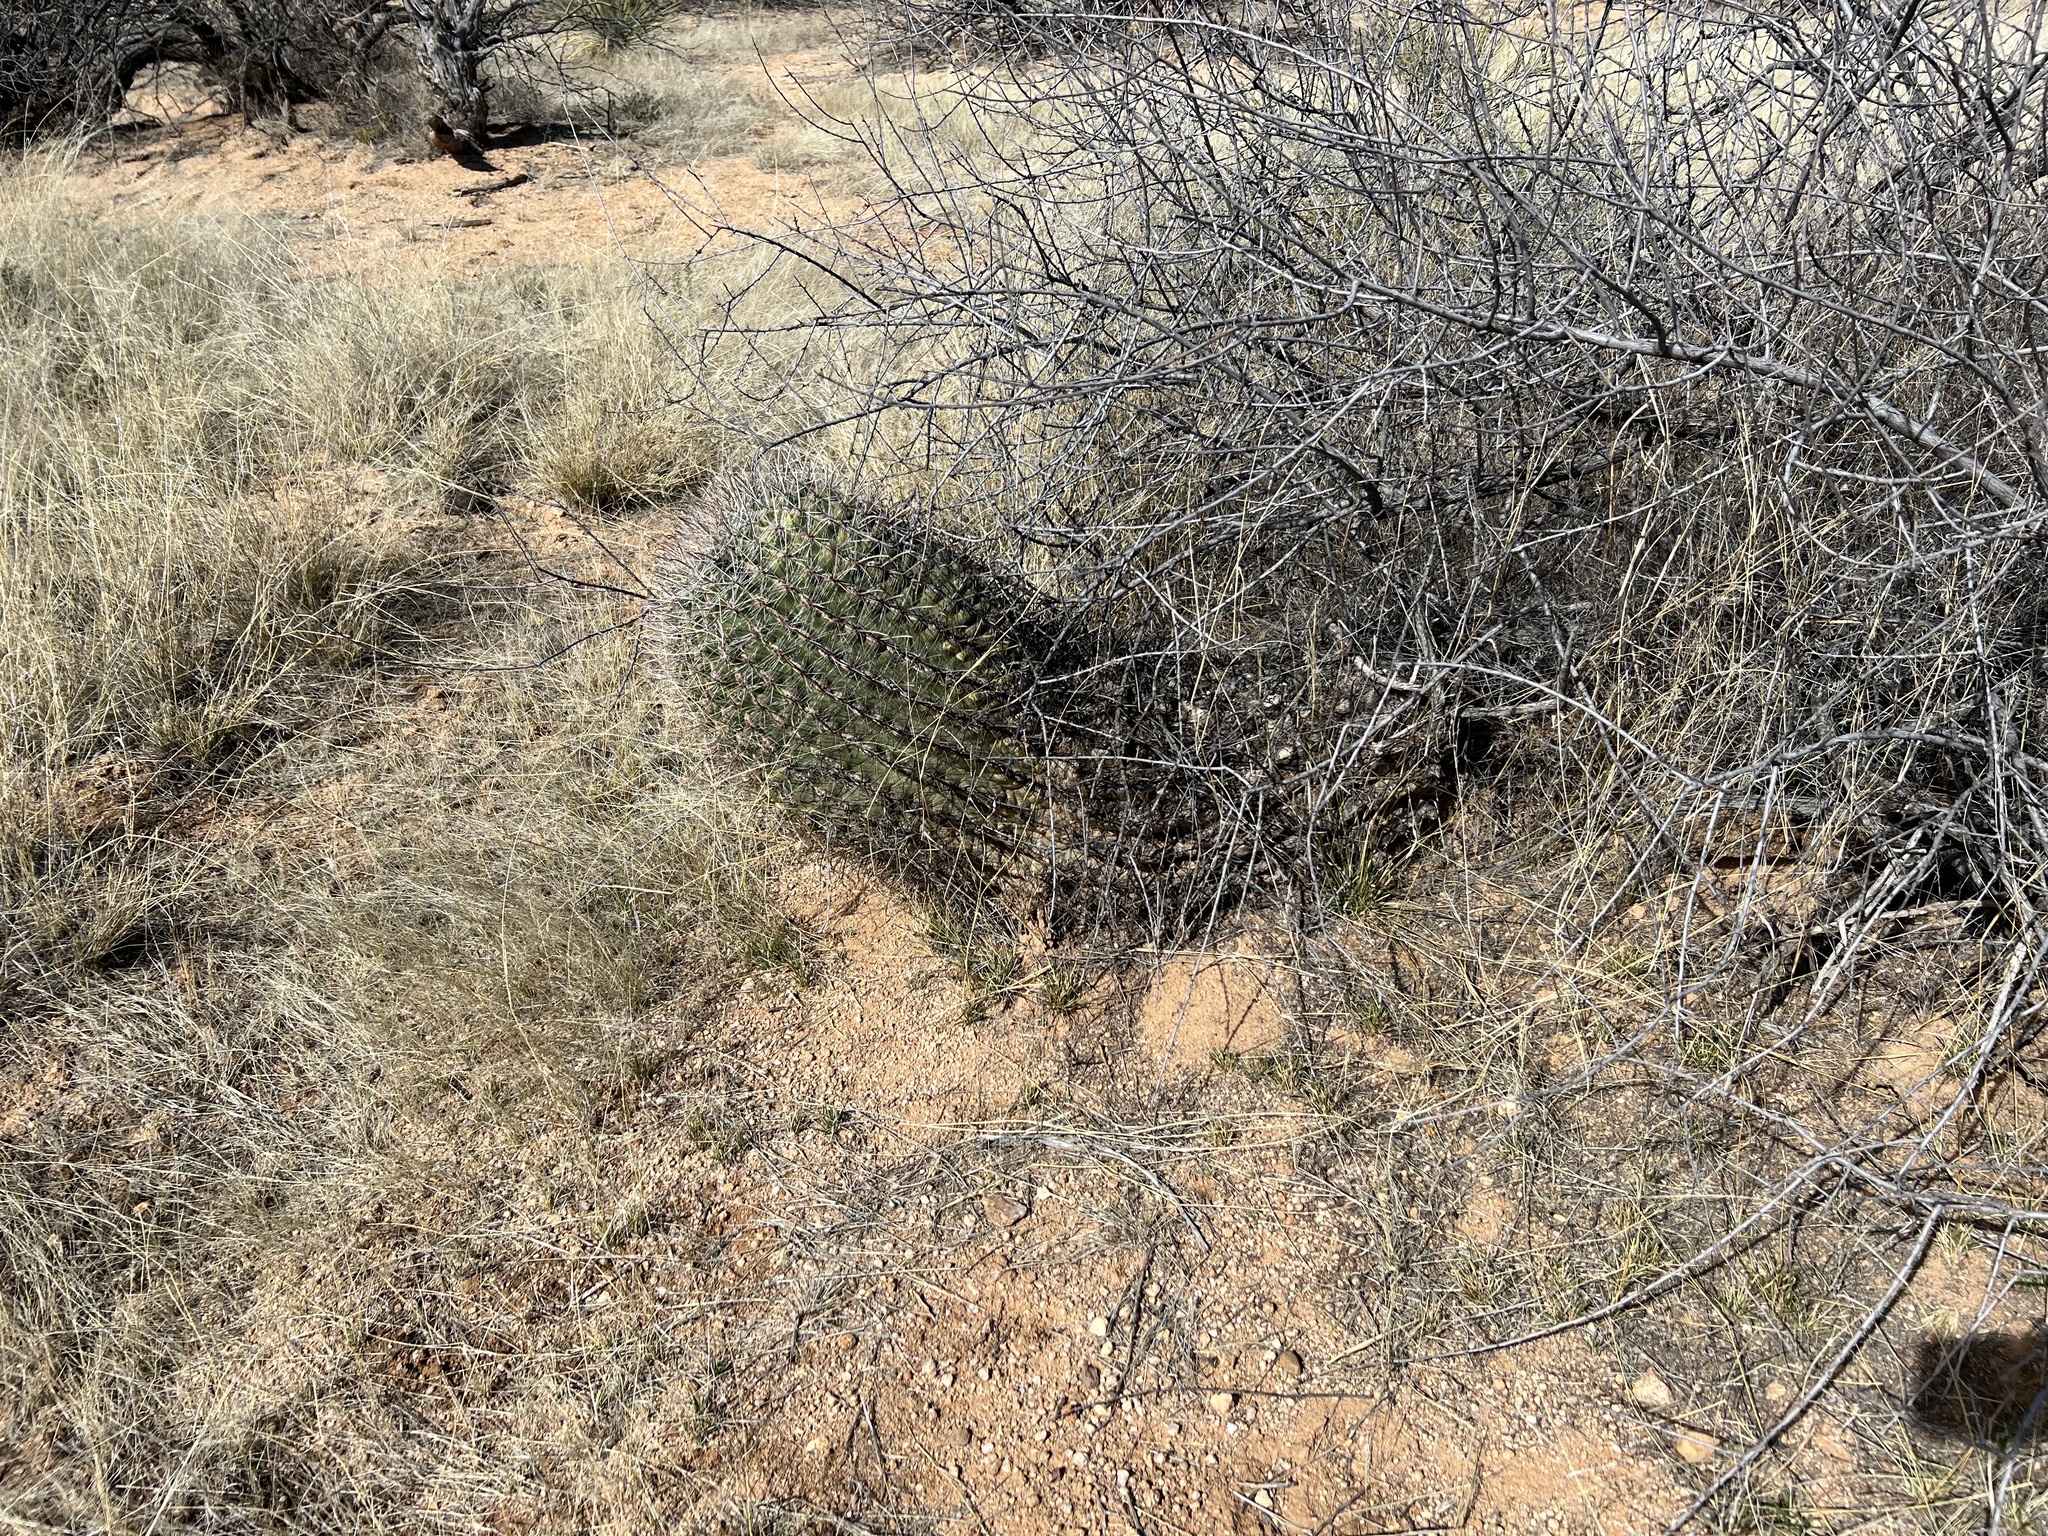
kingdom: Plantae
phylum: Tracheophyta
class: Magnoliopsida
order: Caryophyllales
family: Cactaceae
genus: Ferocactus
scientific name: Ferocactus wislizeni
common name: Candy barrel cactus
